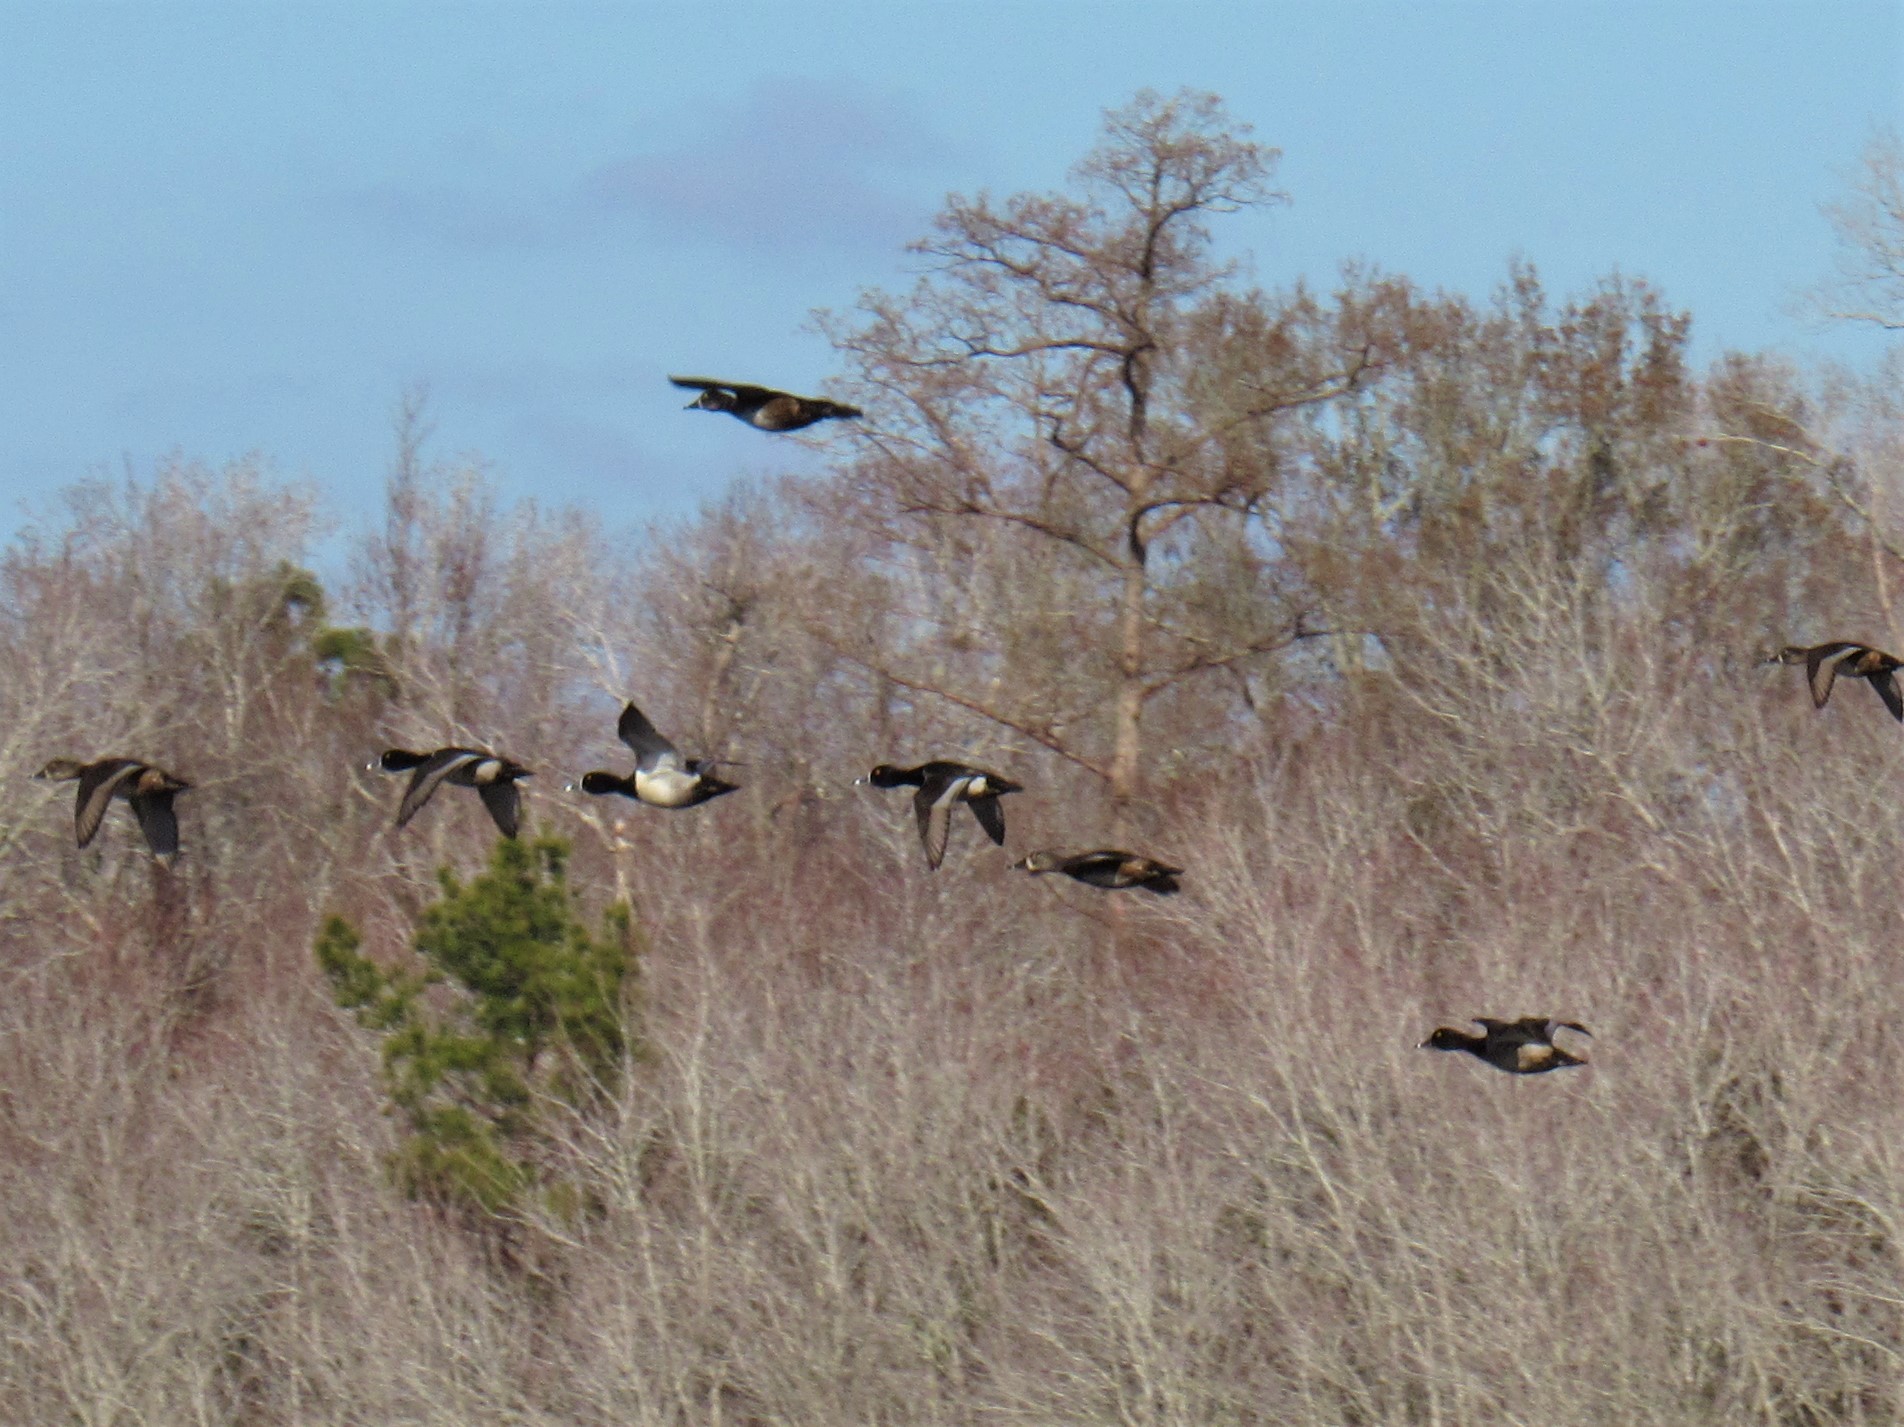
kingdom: Animalia
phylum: Chordata
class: Aves
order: Anseriformes
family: Anatidae
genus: Aythya
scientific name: Aythya collaris
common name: Ring-necked duck
